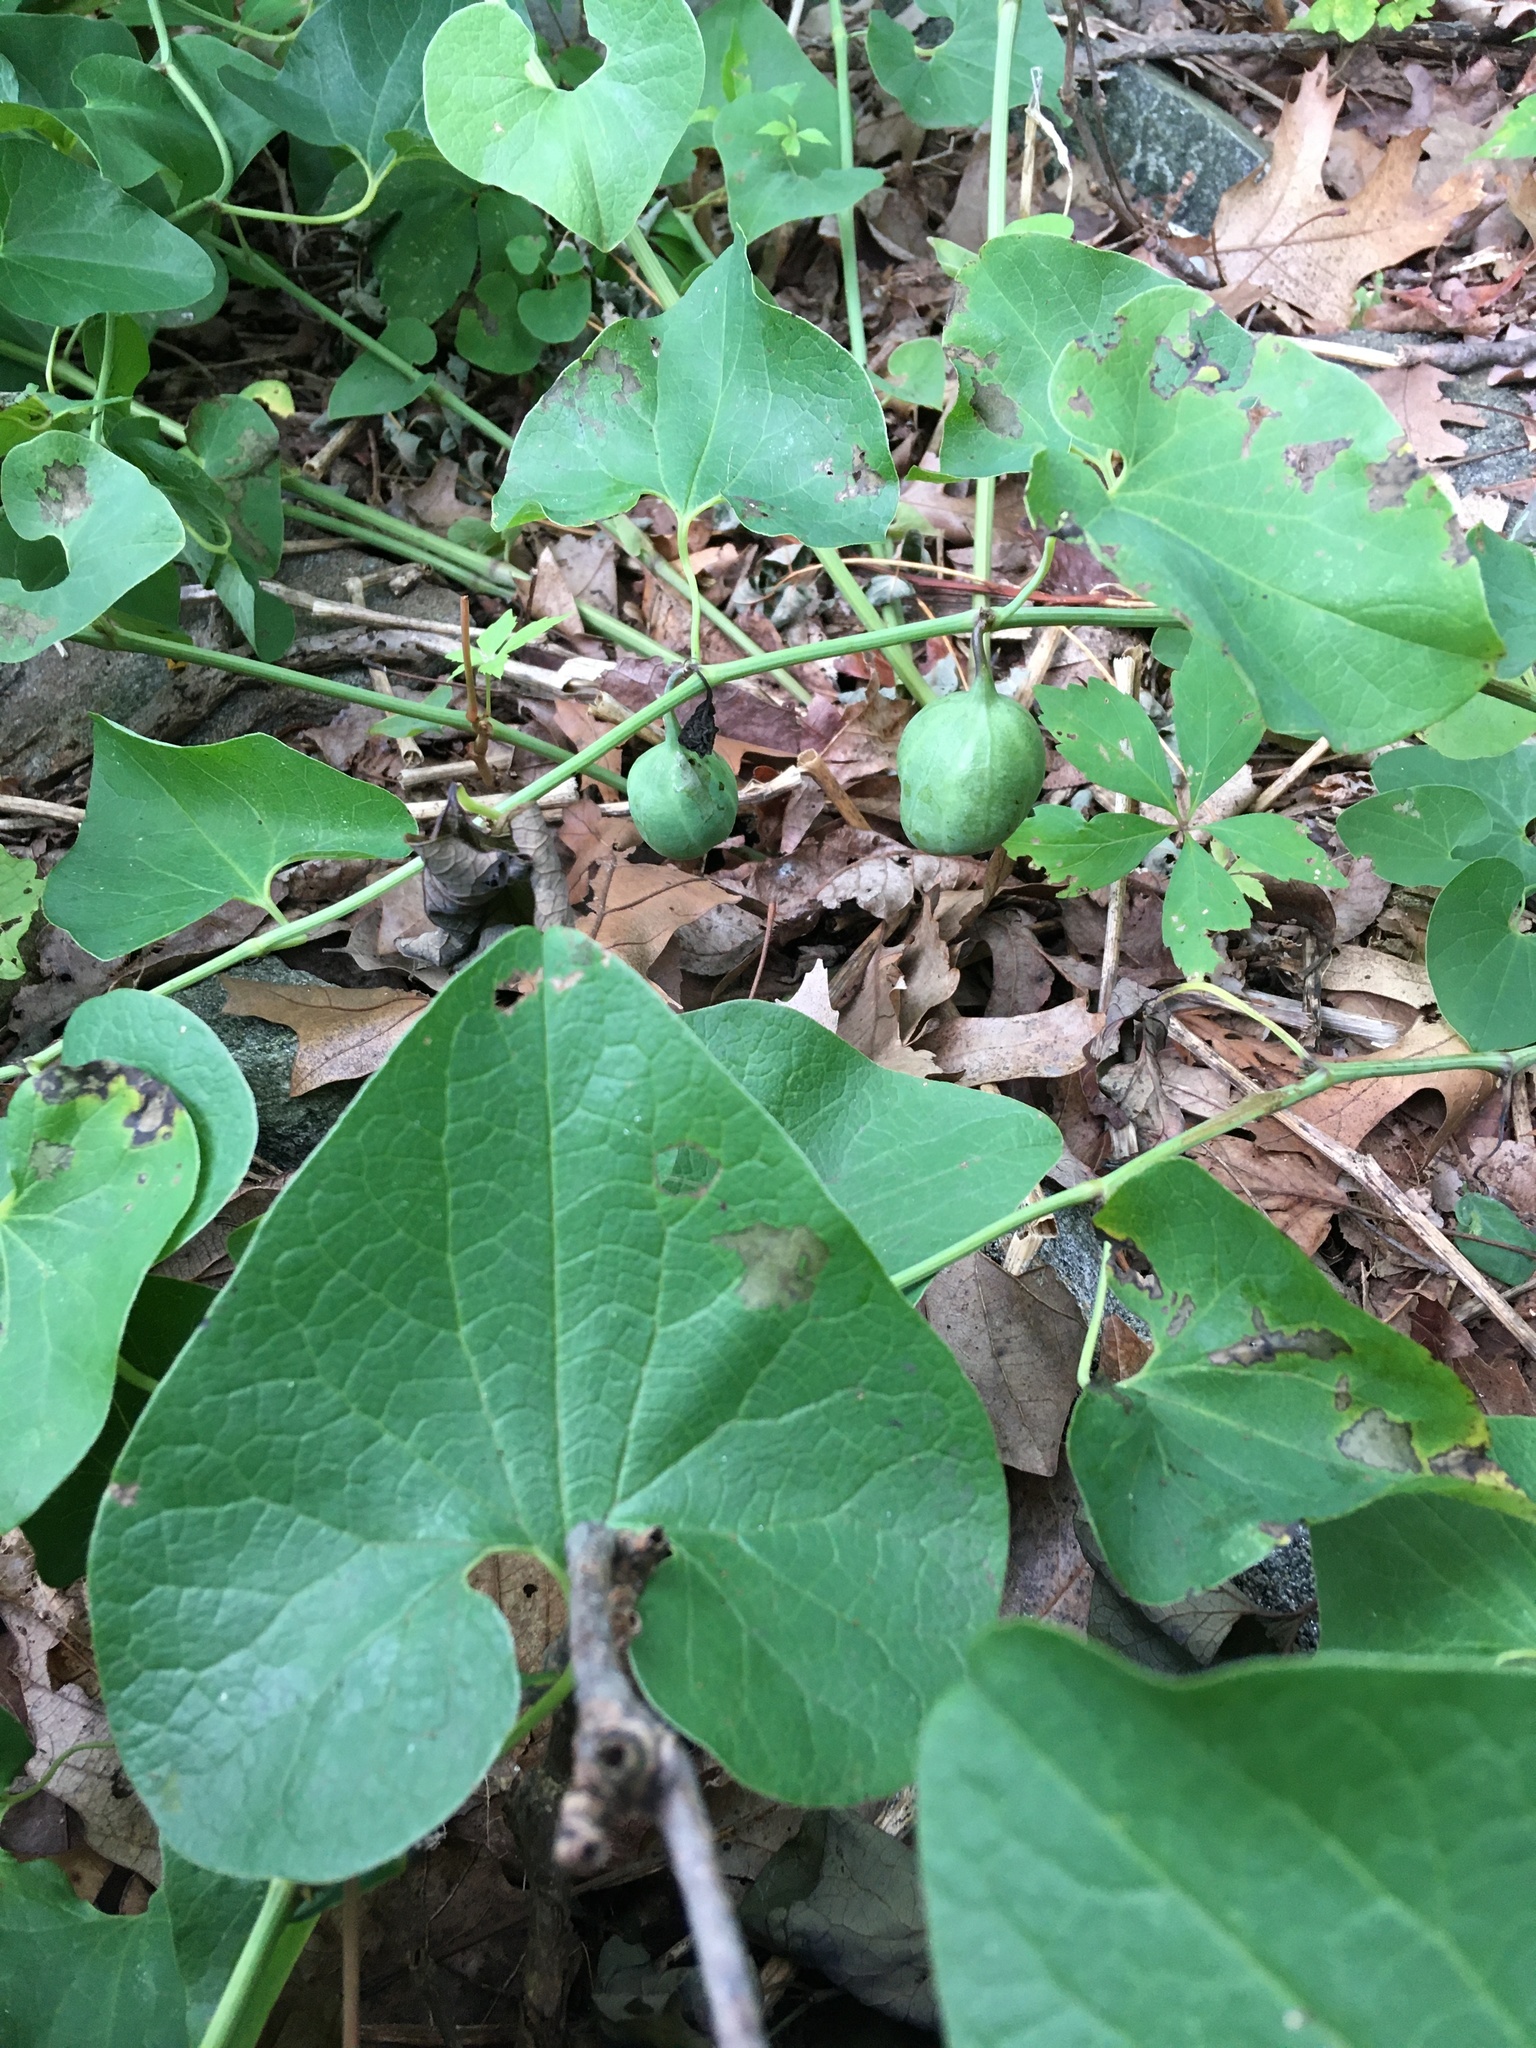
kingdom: Plantae
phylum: Tracheophyta
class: Magnoliopsida
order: Piperales
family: Aristolochiaceae
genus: Aristolochia
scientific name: Aristolochia clematitis
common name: Birthwort
